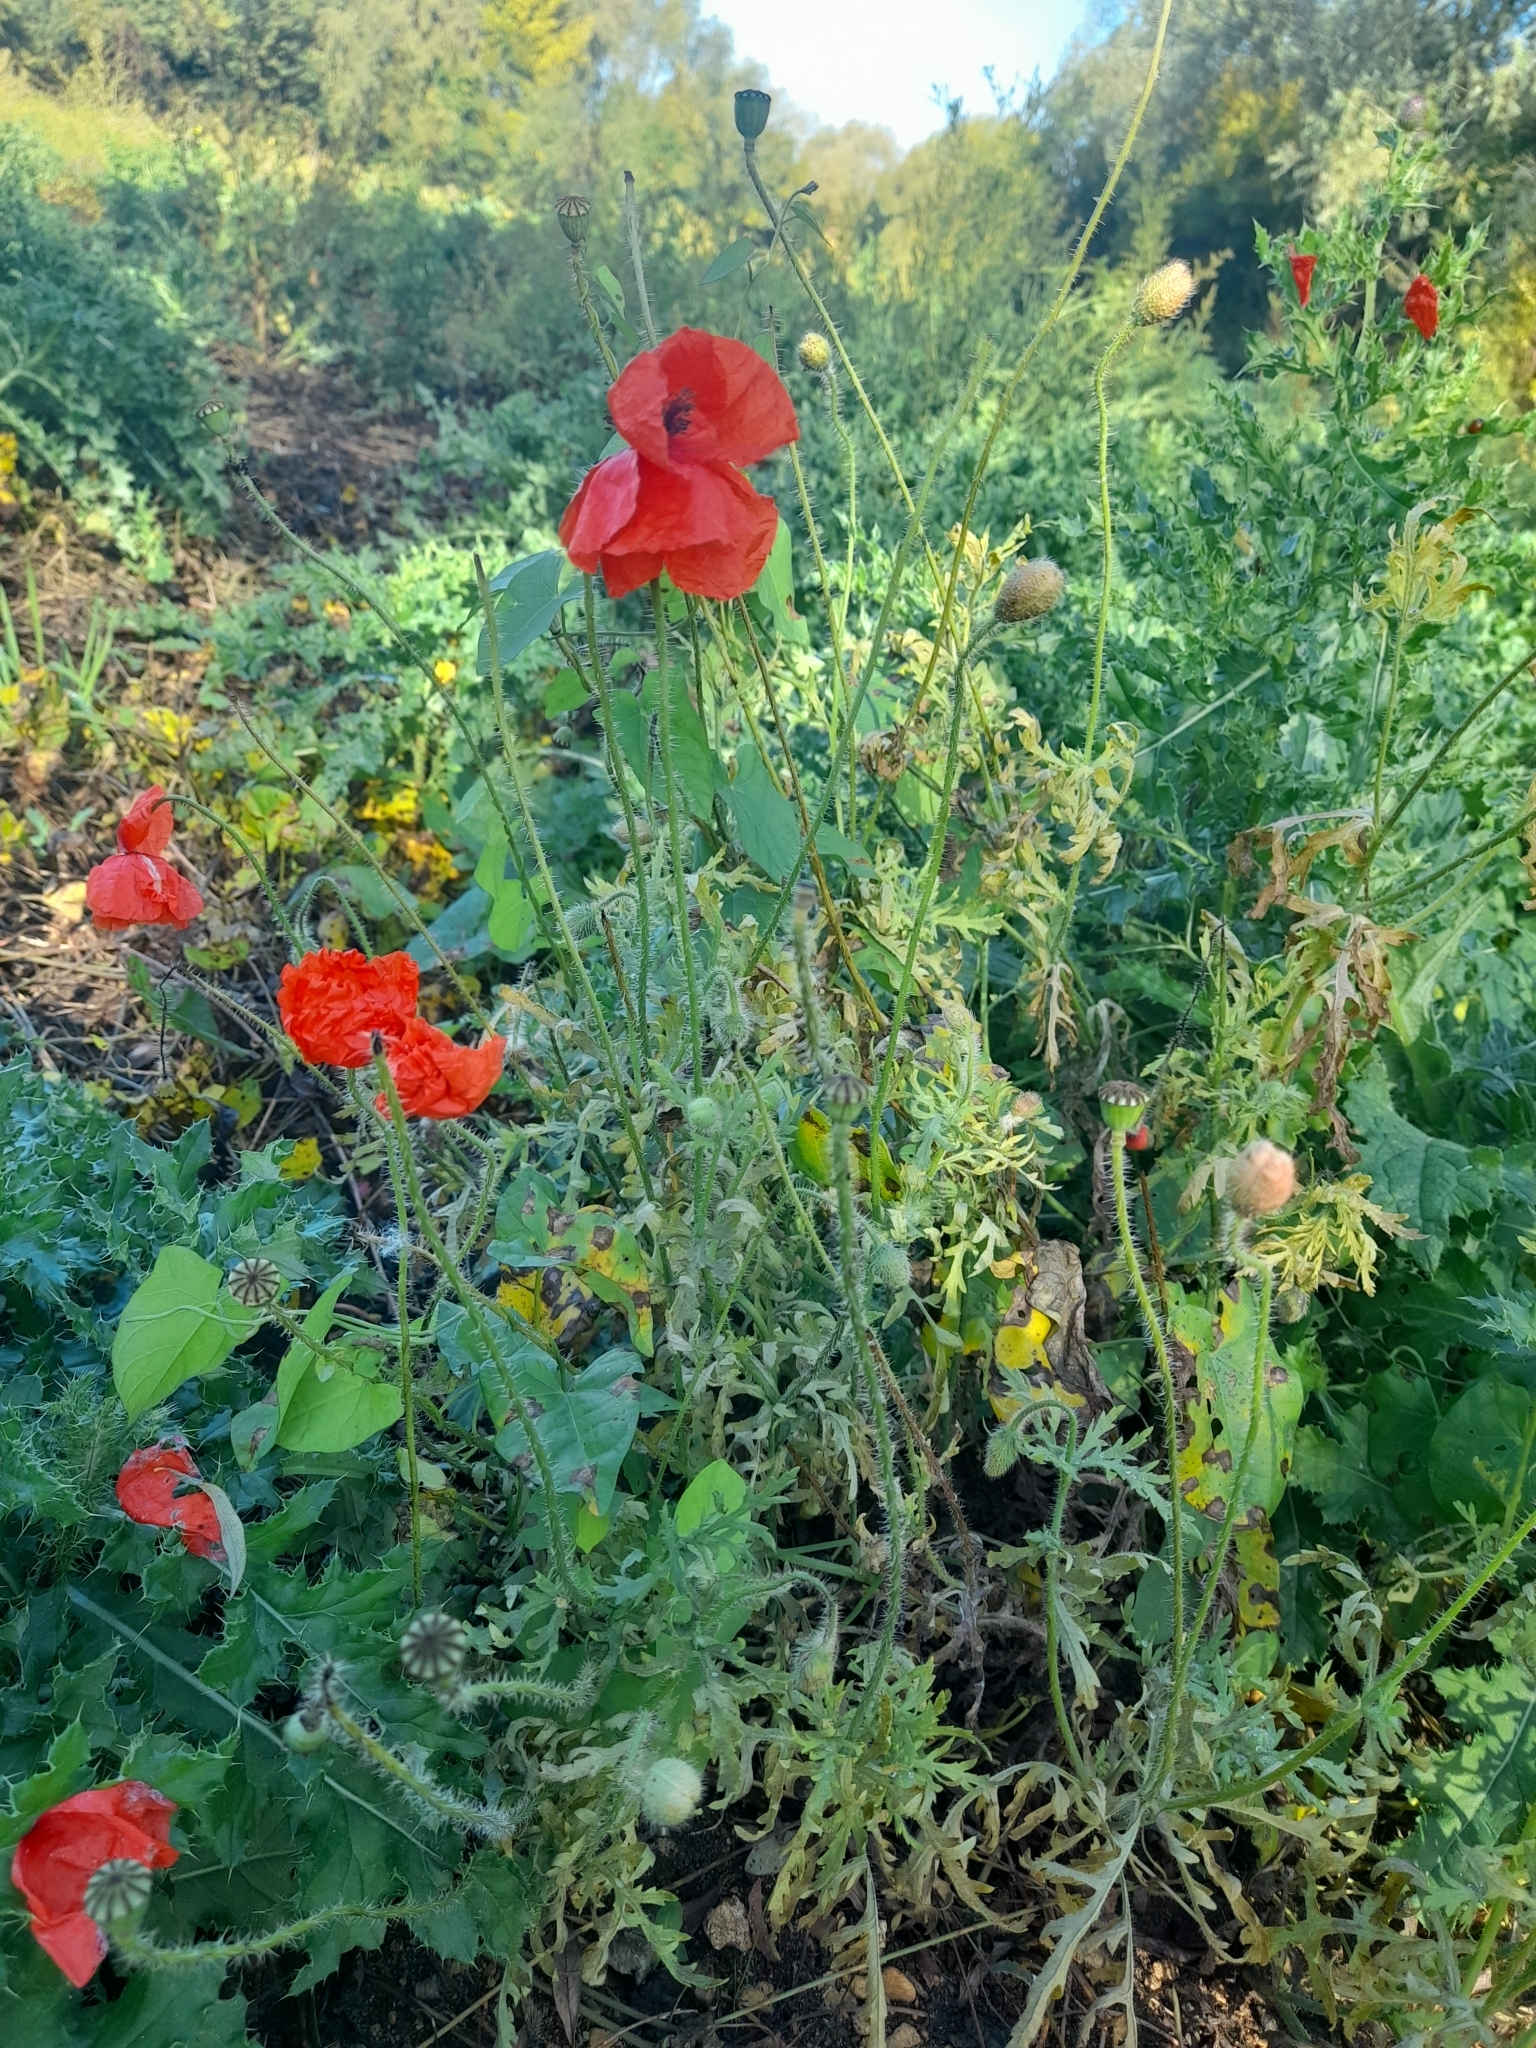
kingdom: Plantae
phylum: Tracheophyta
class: Magnoliopsida
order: Ranunculales
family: Papaveraceae
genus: Papaver
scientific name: Papaver rhoeas
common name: Corn poppy
